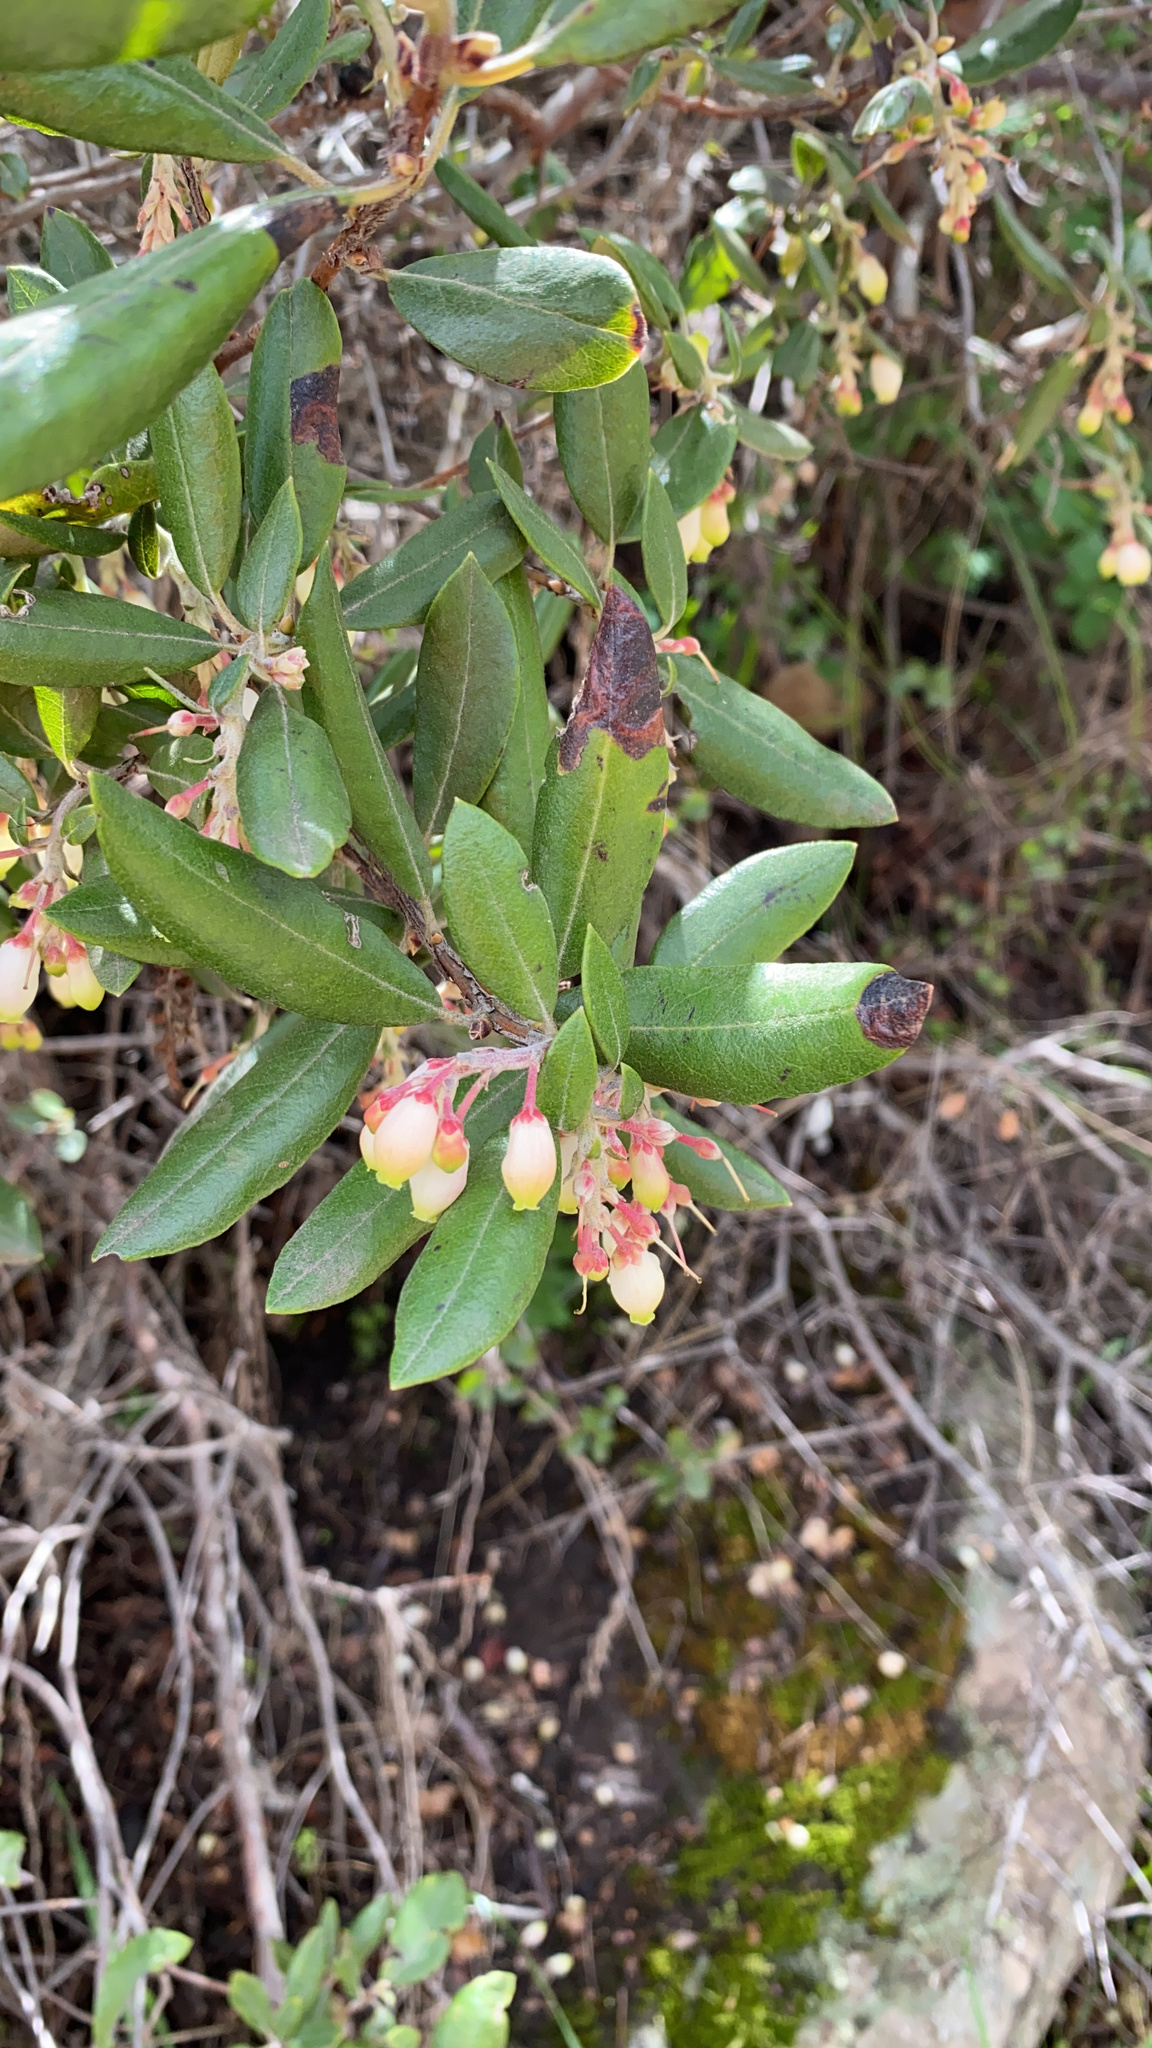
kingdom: Plantae
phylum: Tracheophyta
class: Magnoliopsida
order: Ericales
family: Ericaceae
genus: Arctostaphylos
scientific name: Arctostaphylos bicolor
